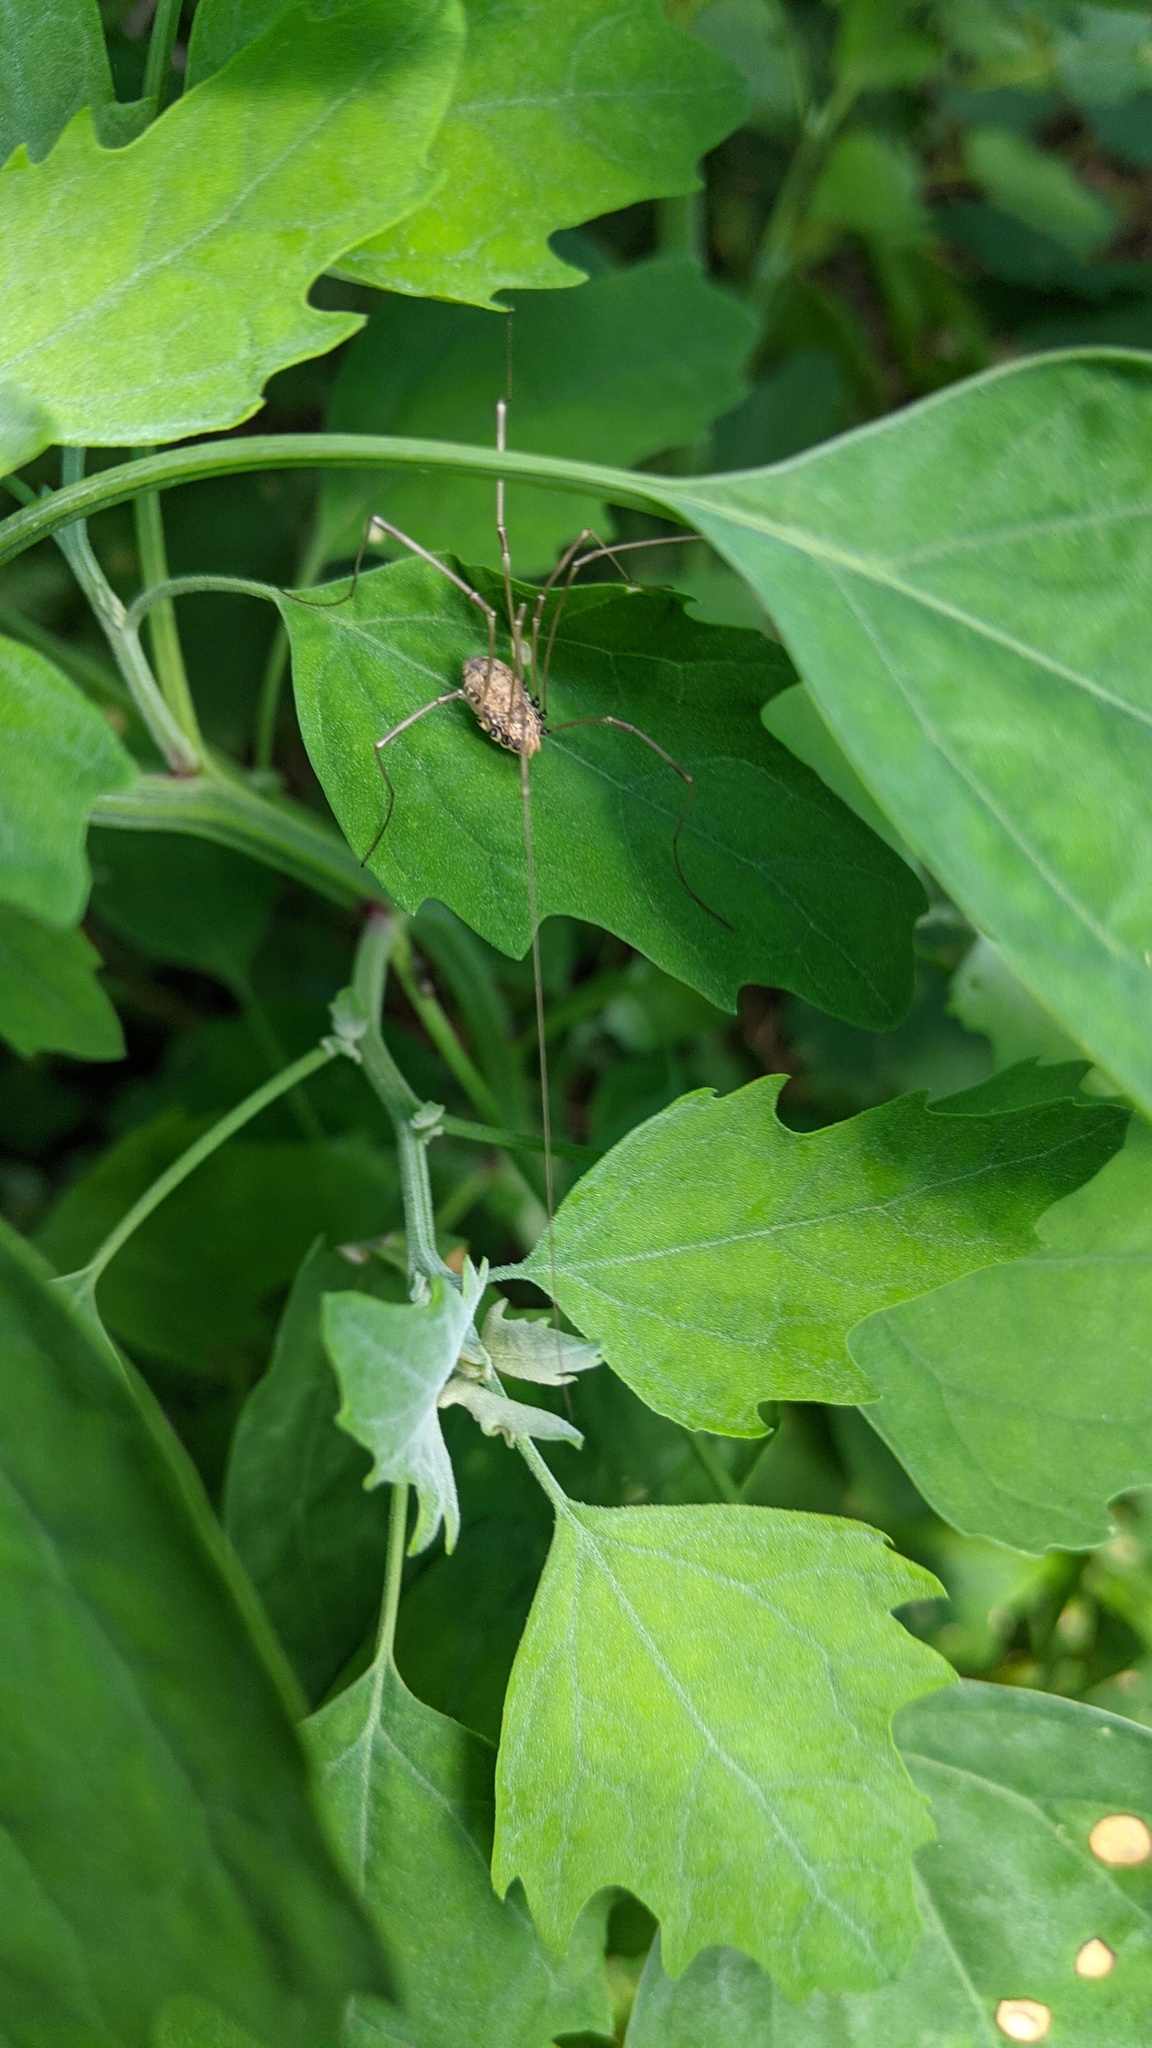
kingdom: Animalia
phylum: Arthropoda
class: Arachnida
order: Opiliones
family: Sclerosomatidae
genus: Leiobunum
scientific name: Leiobunum vittatum
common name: Eastern harvestman
